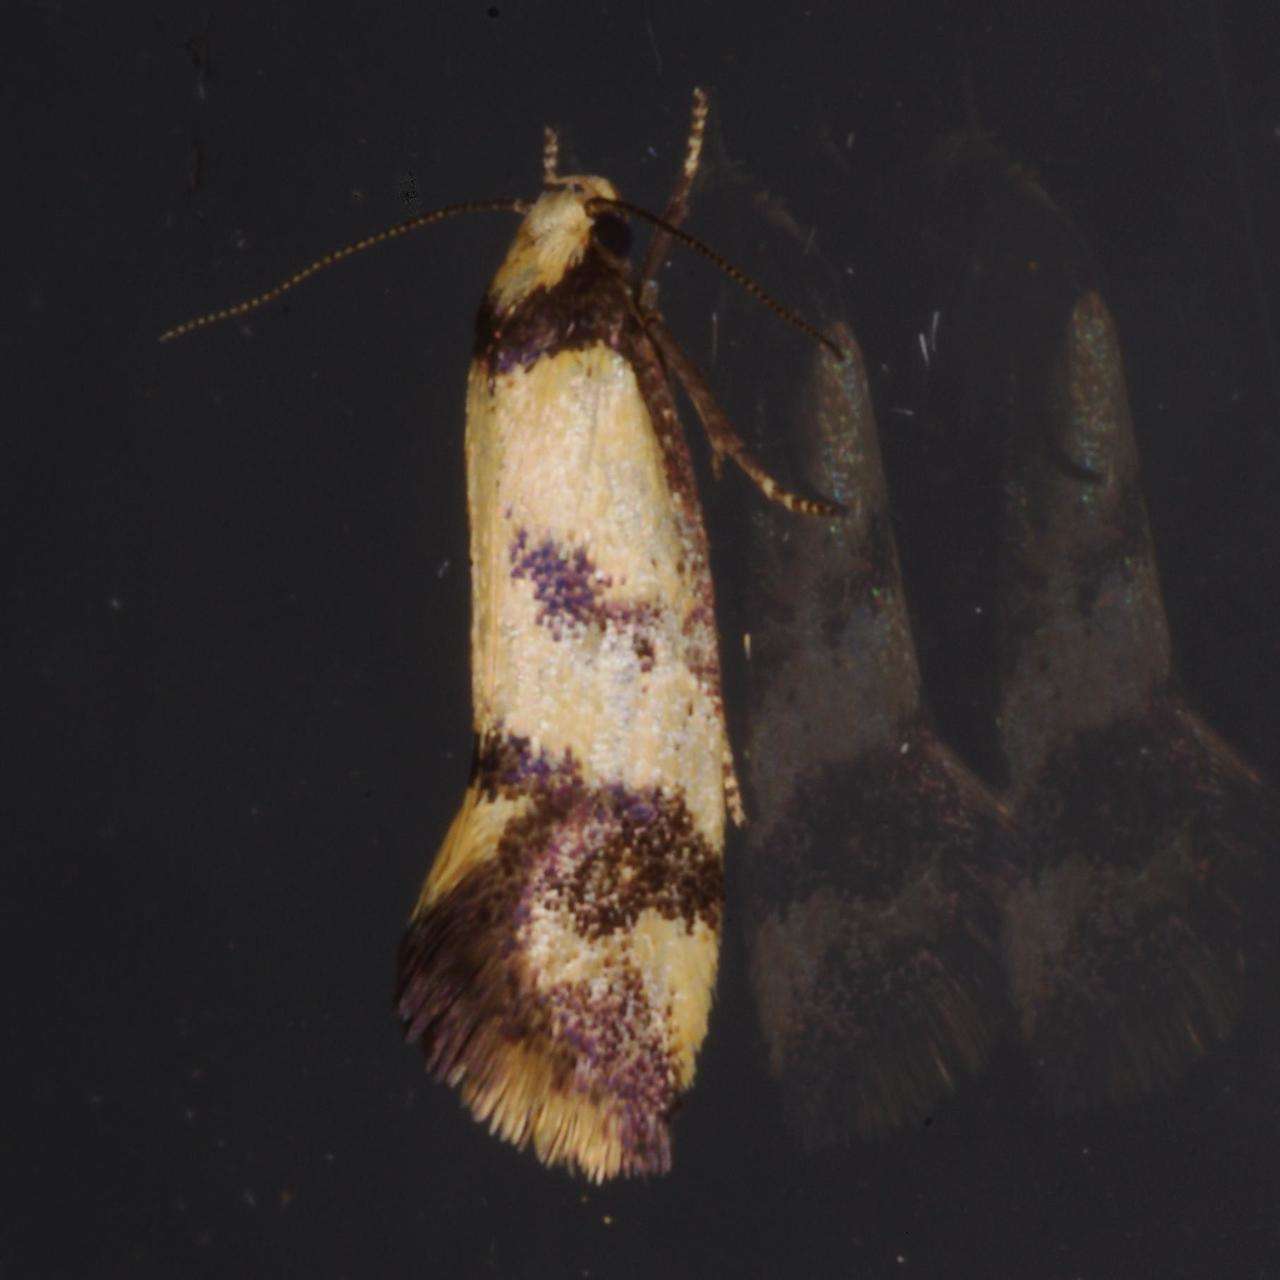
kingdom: Animalia
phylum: Arthropoda
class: Insecta
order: Lepidoptera
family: Oecophoridae
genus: Olbonoma
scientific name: Olbonoma triptycha
